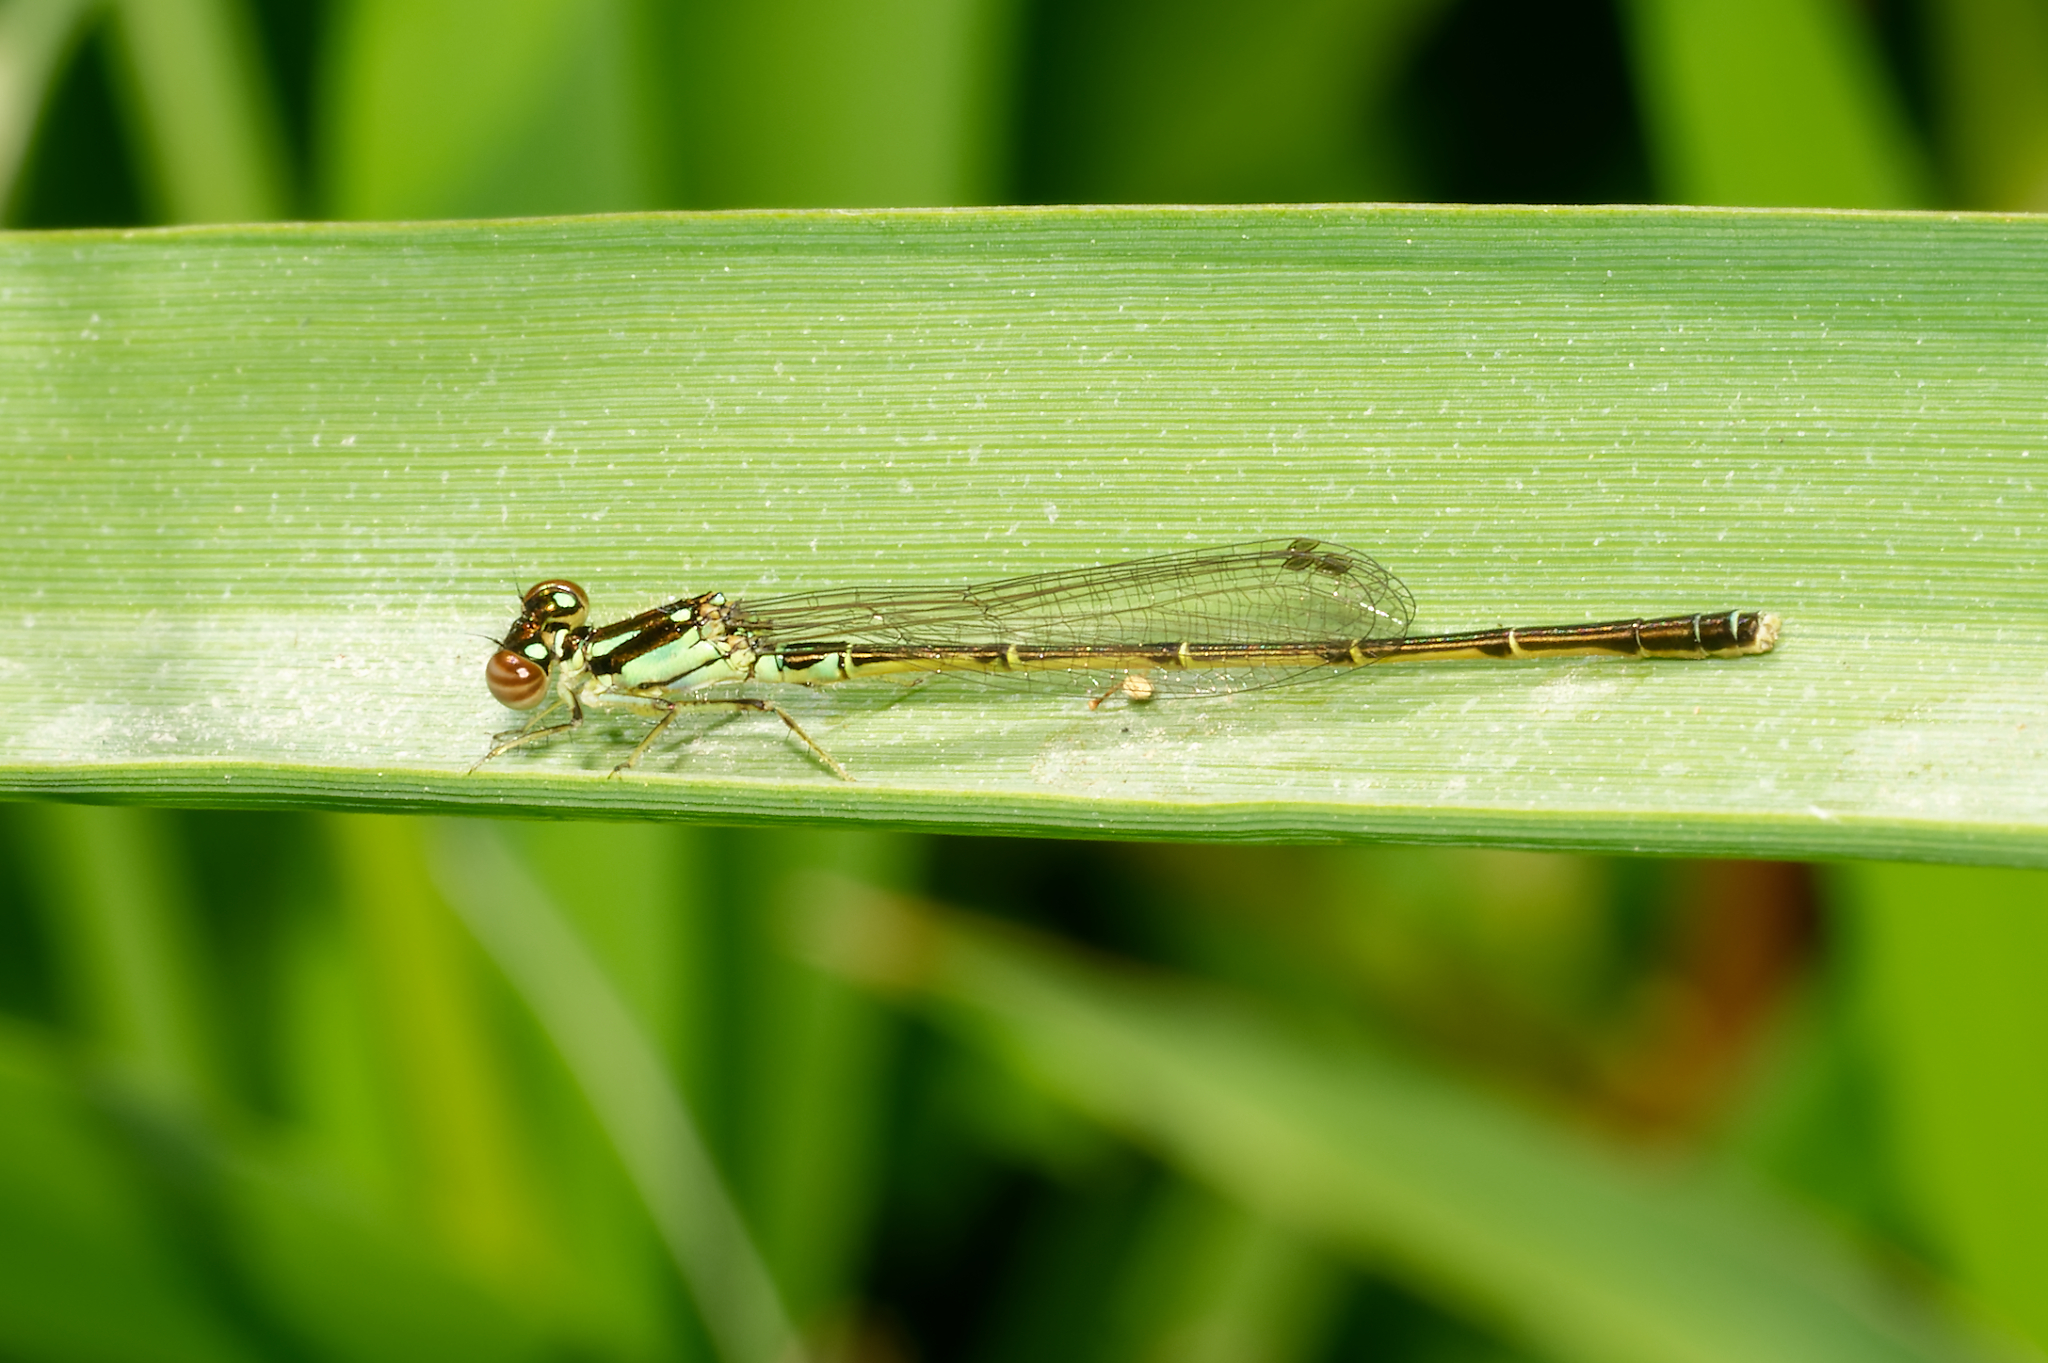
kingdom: Animalia
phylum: Arthropoda
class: Insecta
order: Odonata
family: Coenagrionidae
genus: Ischnura
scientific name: Ischnura posita
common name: Fragile forktail
